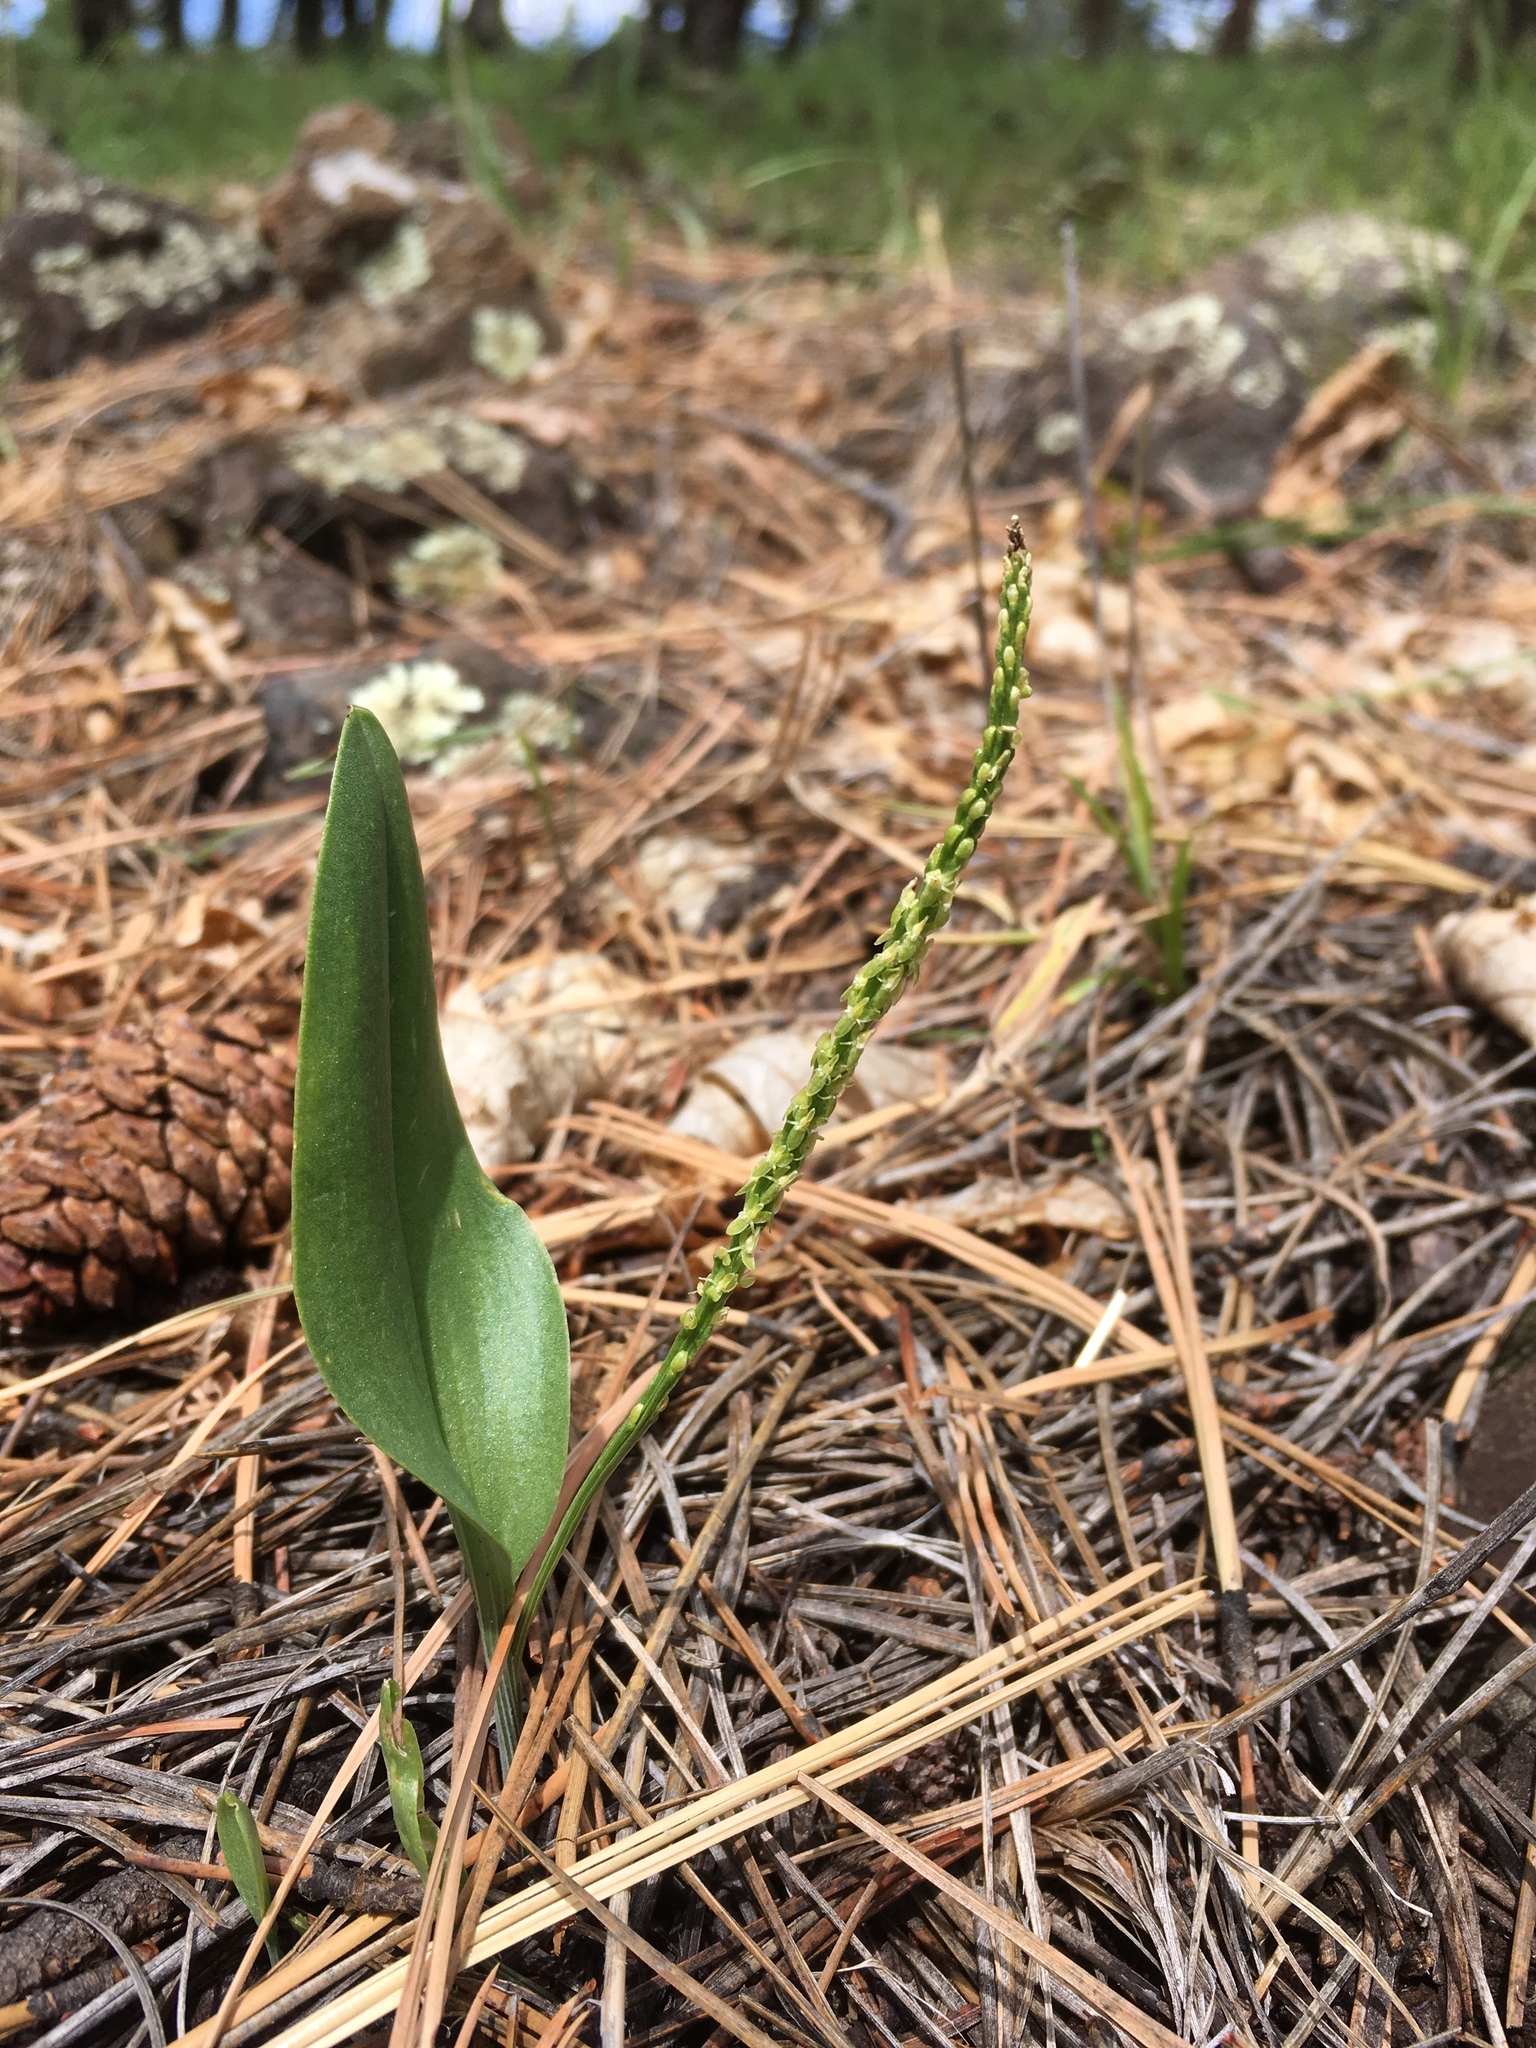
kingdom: Plantae
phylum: Tracheophyta
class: Liliopsida
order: Asparagales
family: Orchidaceae
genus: Malaxis
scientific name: Malaxis macrostachya
